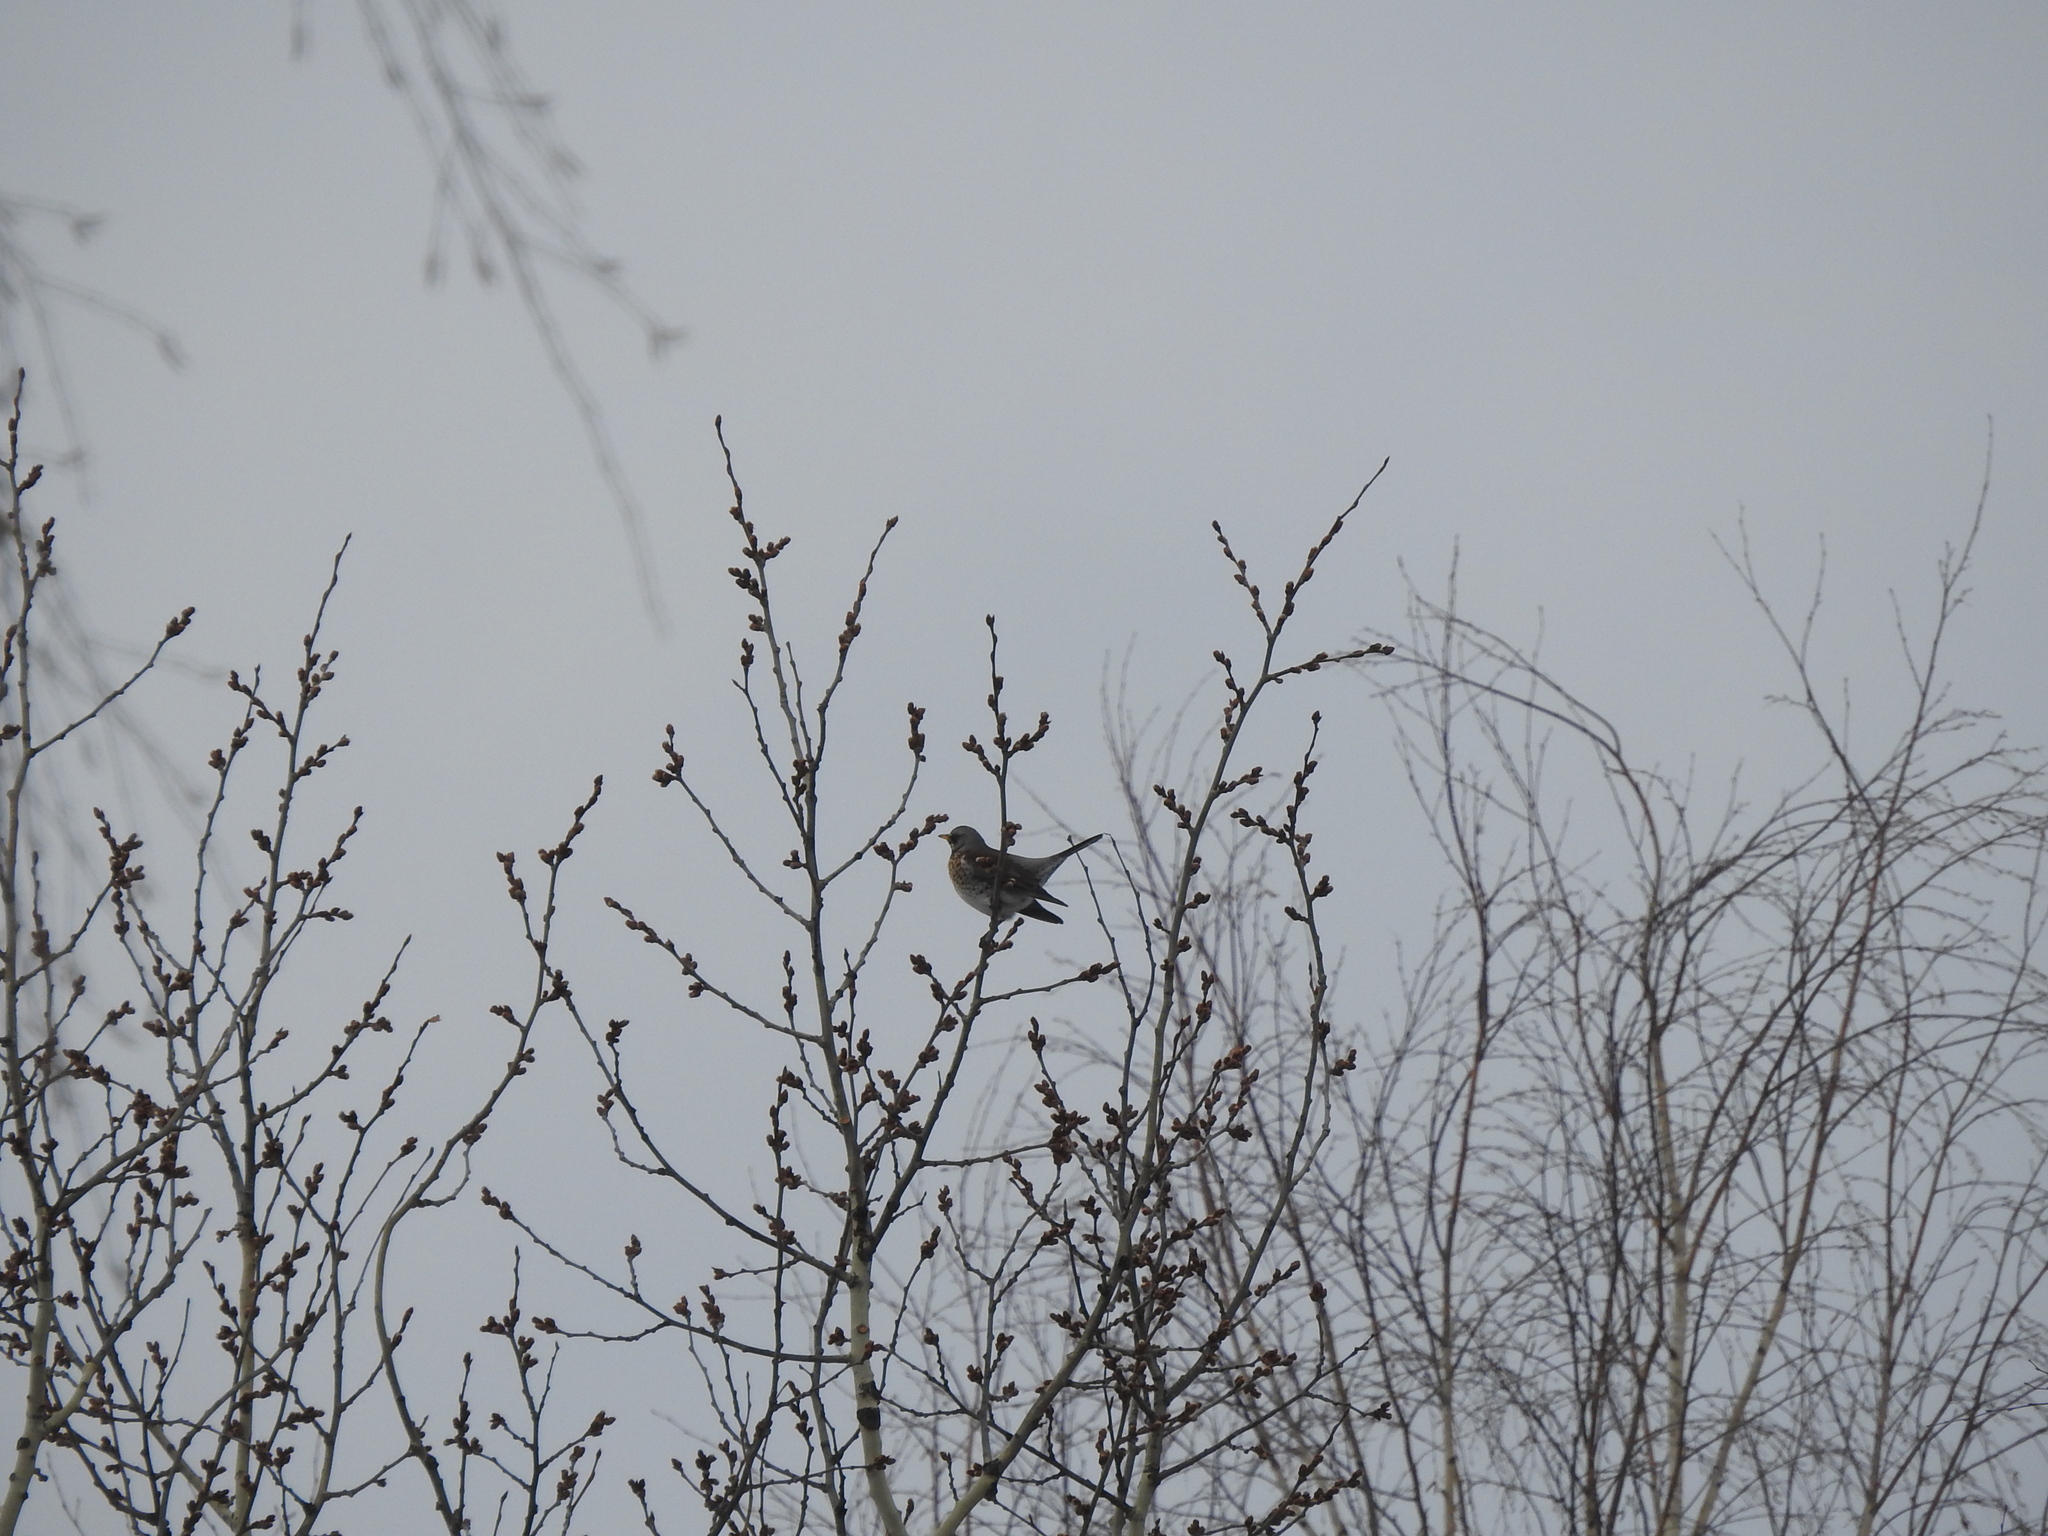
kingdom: Animalia
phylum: Chordata
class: Aves
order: Passeriformes
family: Turdidae
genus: Turdus
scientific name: Turdus pilaris
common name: Fieldfare
